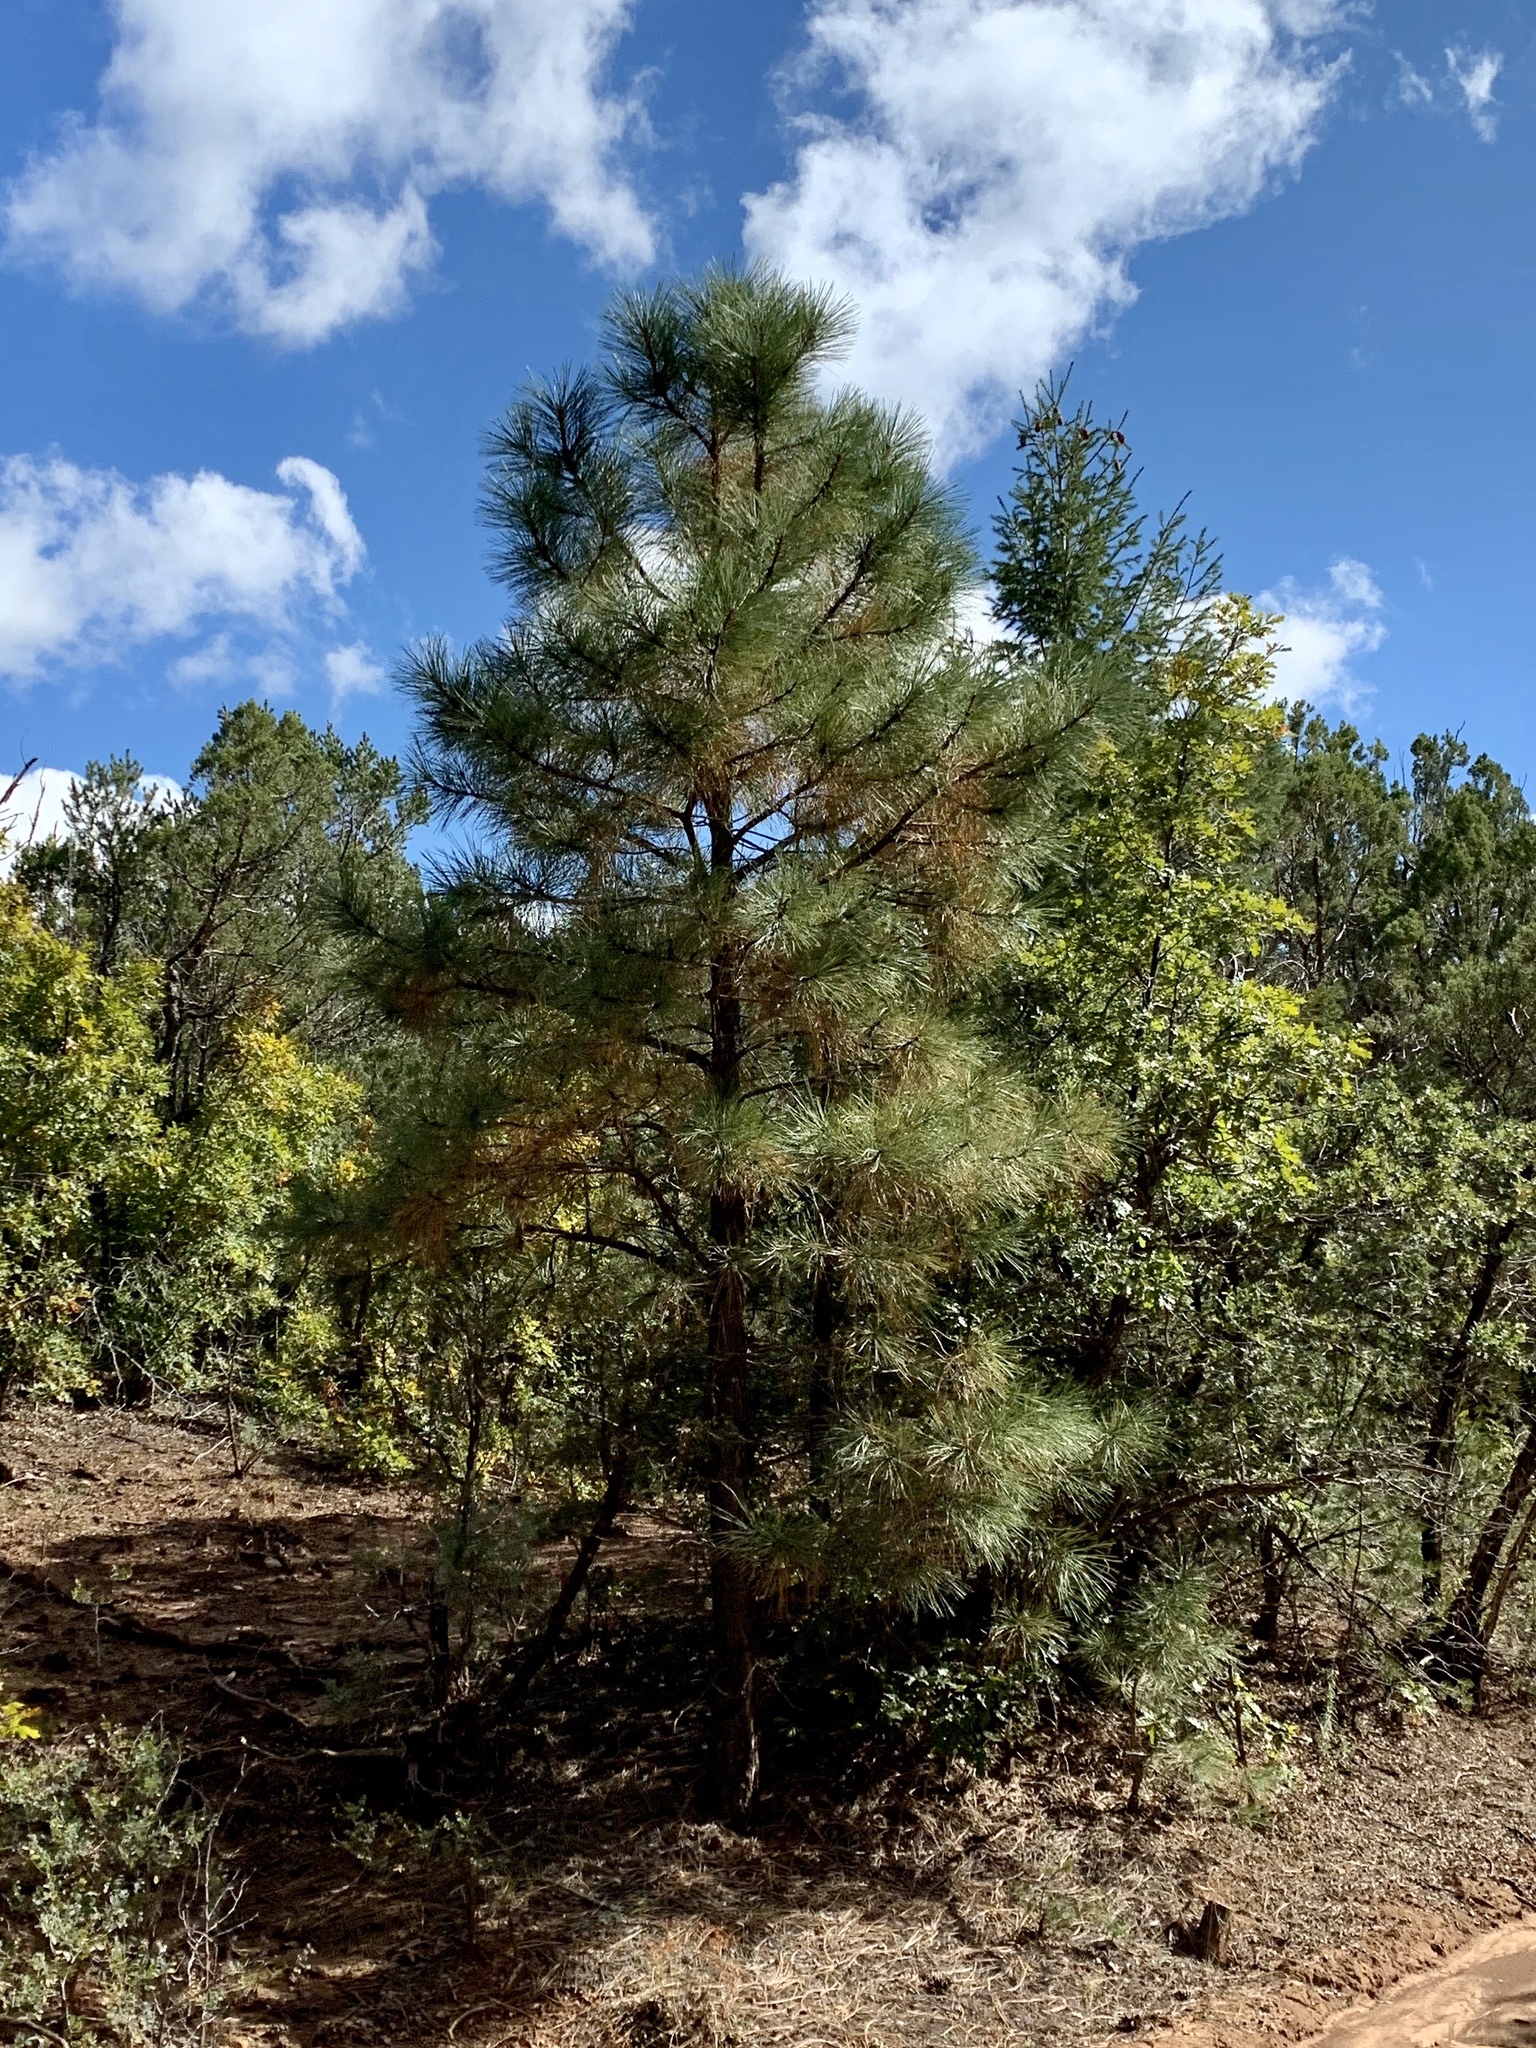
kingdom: Plantae
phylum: Tracheophyta
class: Pinopsida
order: Pinales
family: Pinaceae
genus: Pinus
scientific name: Pinus ponderosa
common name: Western yellow-pine
